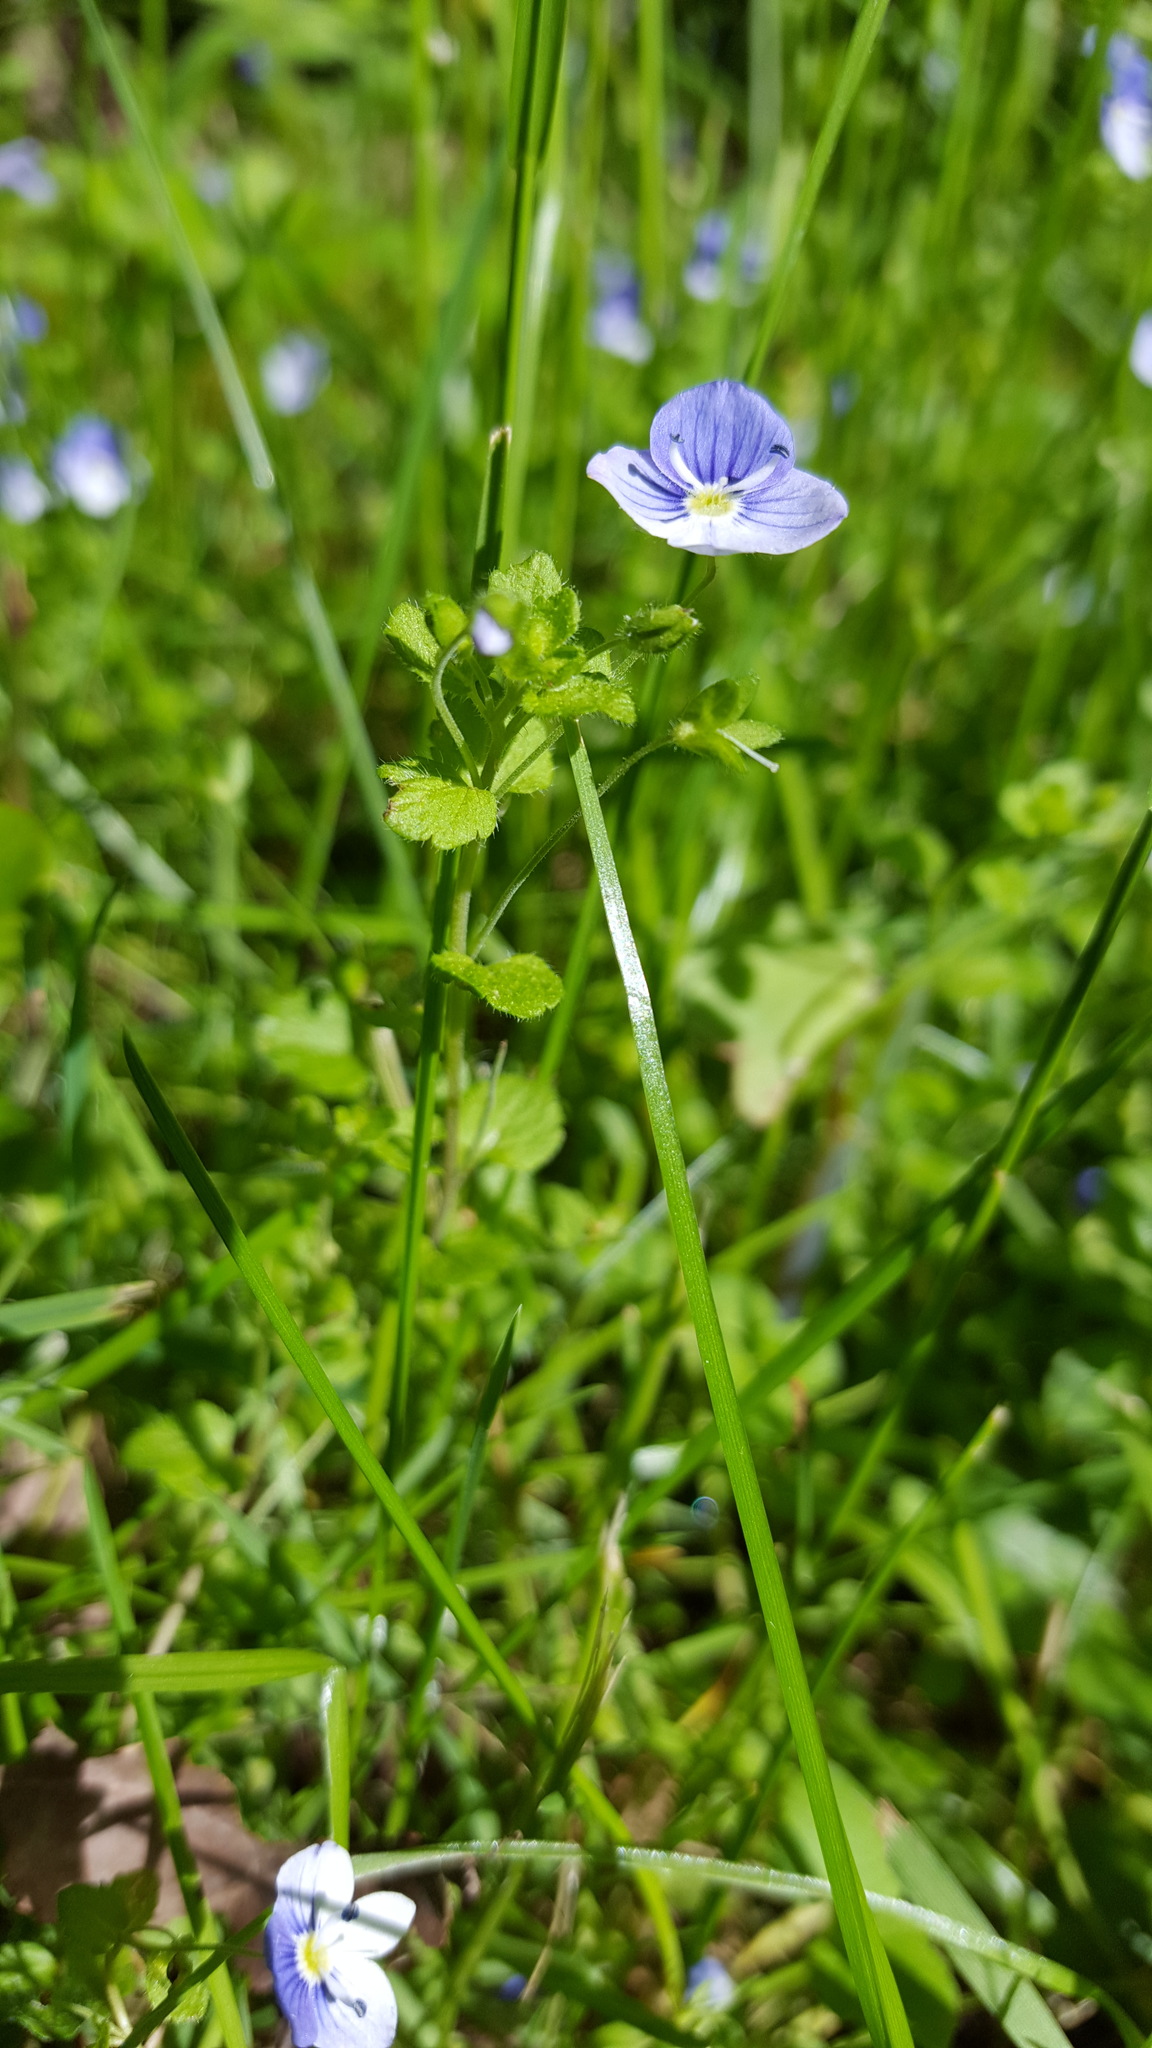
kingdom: Plantae
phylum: Tracheophyta
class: Magnoliopsida
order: Lamiales
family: Plantaginaceae
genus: Veronica
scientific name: Veronica filiformis
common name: Slender speedwell
